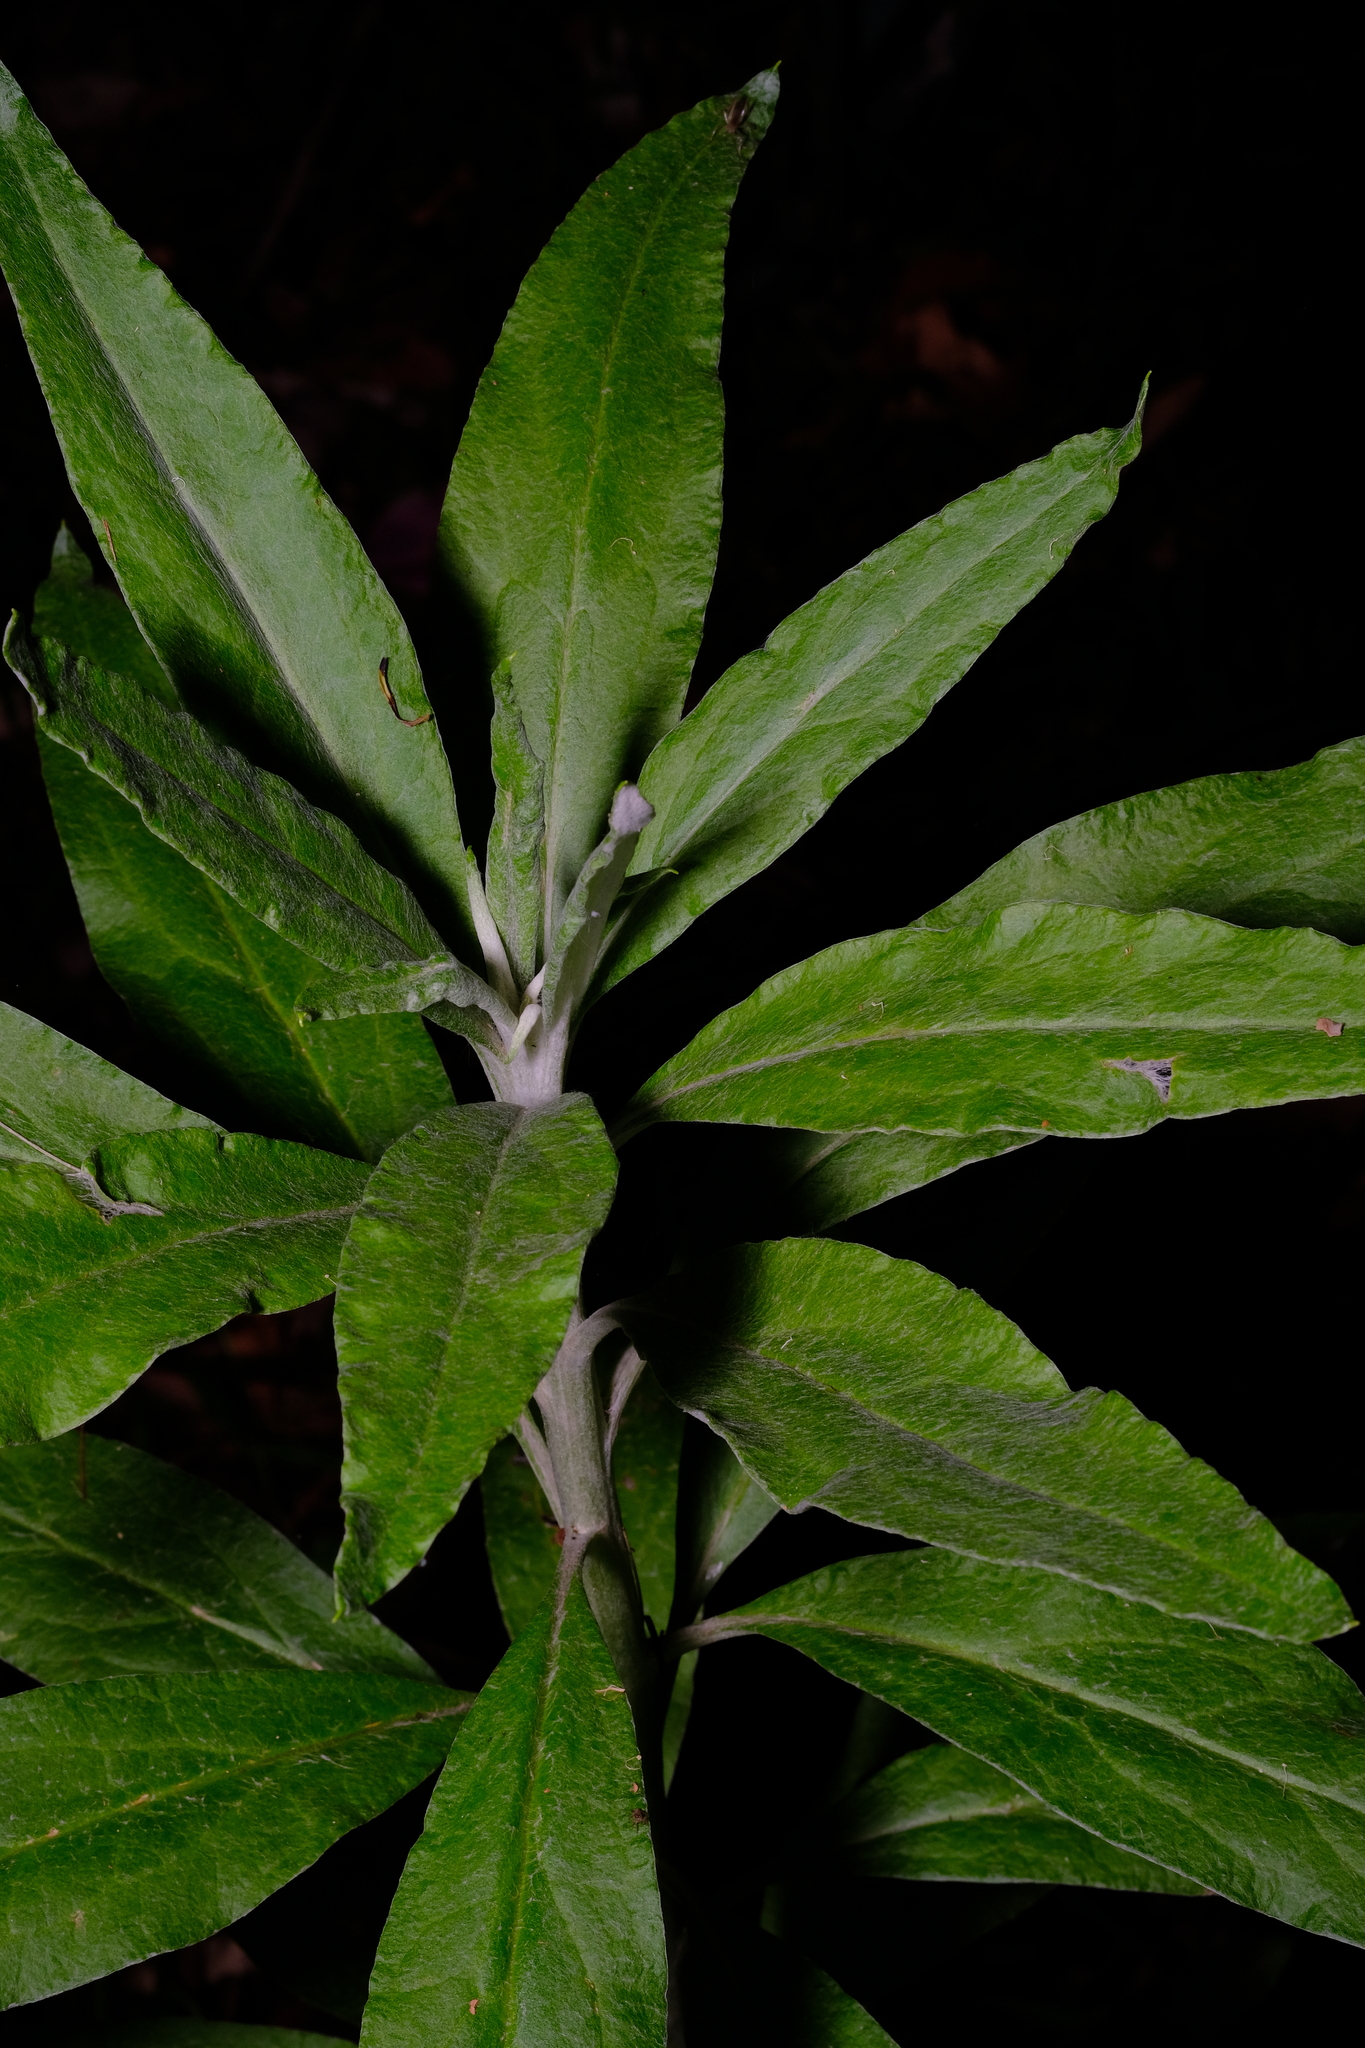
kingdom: Plantae
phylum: Tracheophyta
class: Magnoliopsida
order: Asterales
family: Asteraceae
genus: Leucozoma
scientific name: Leucozoma elatum
